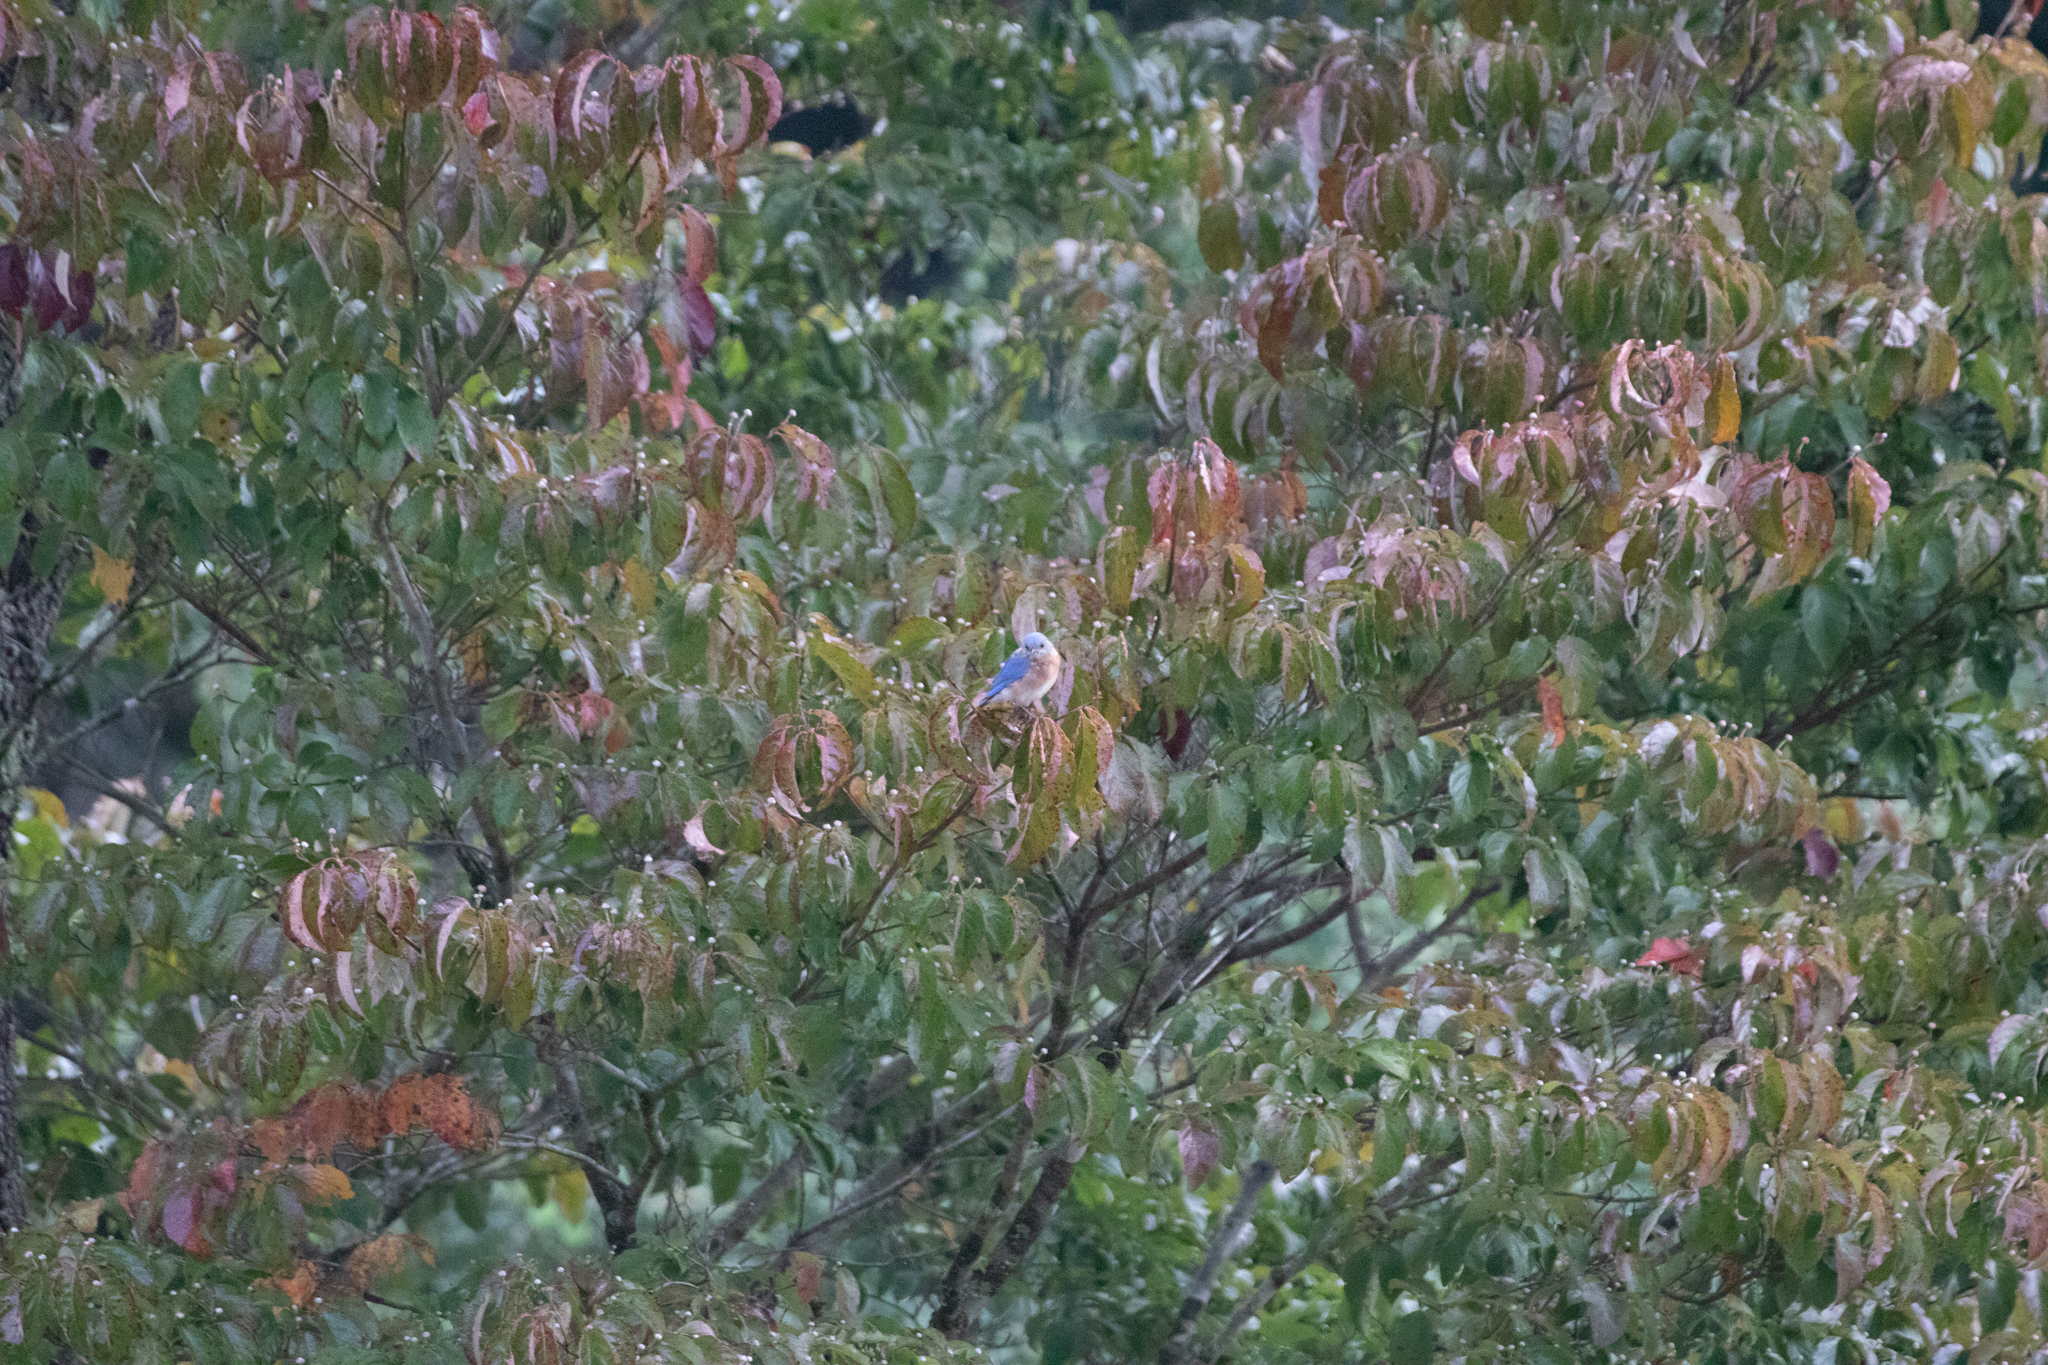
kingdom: Animalia
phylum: Chordata
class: Aves
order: Passeriformes
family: Turdidae
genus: Sialia
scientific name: Sialia sialis
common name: Eastern bluebird
